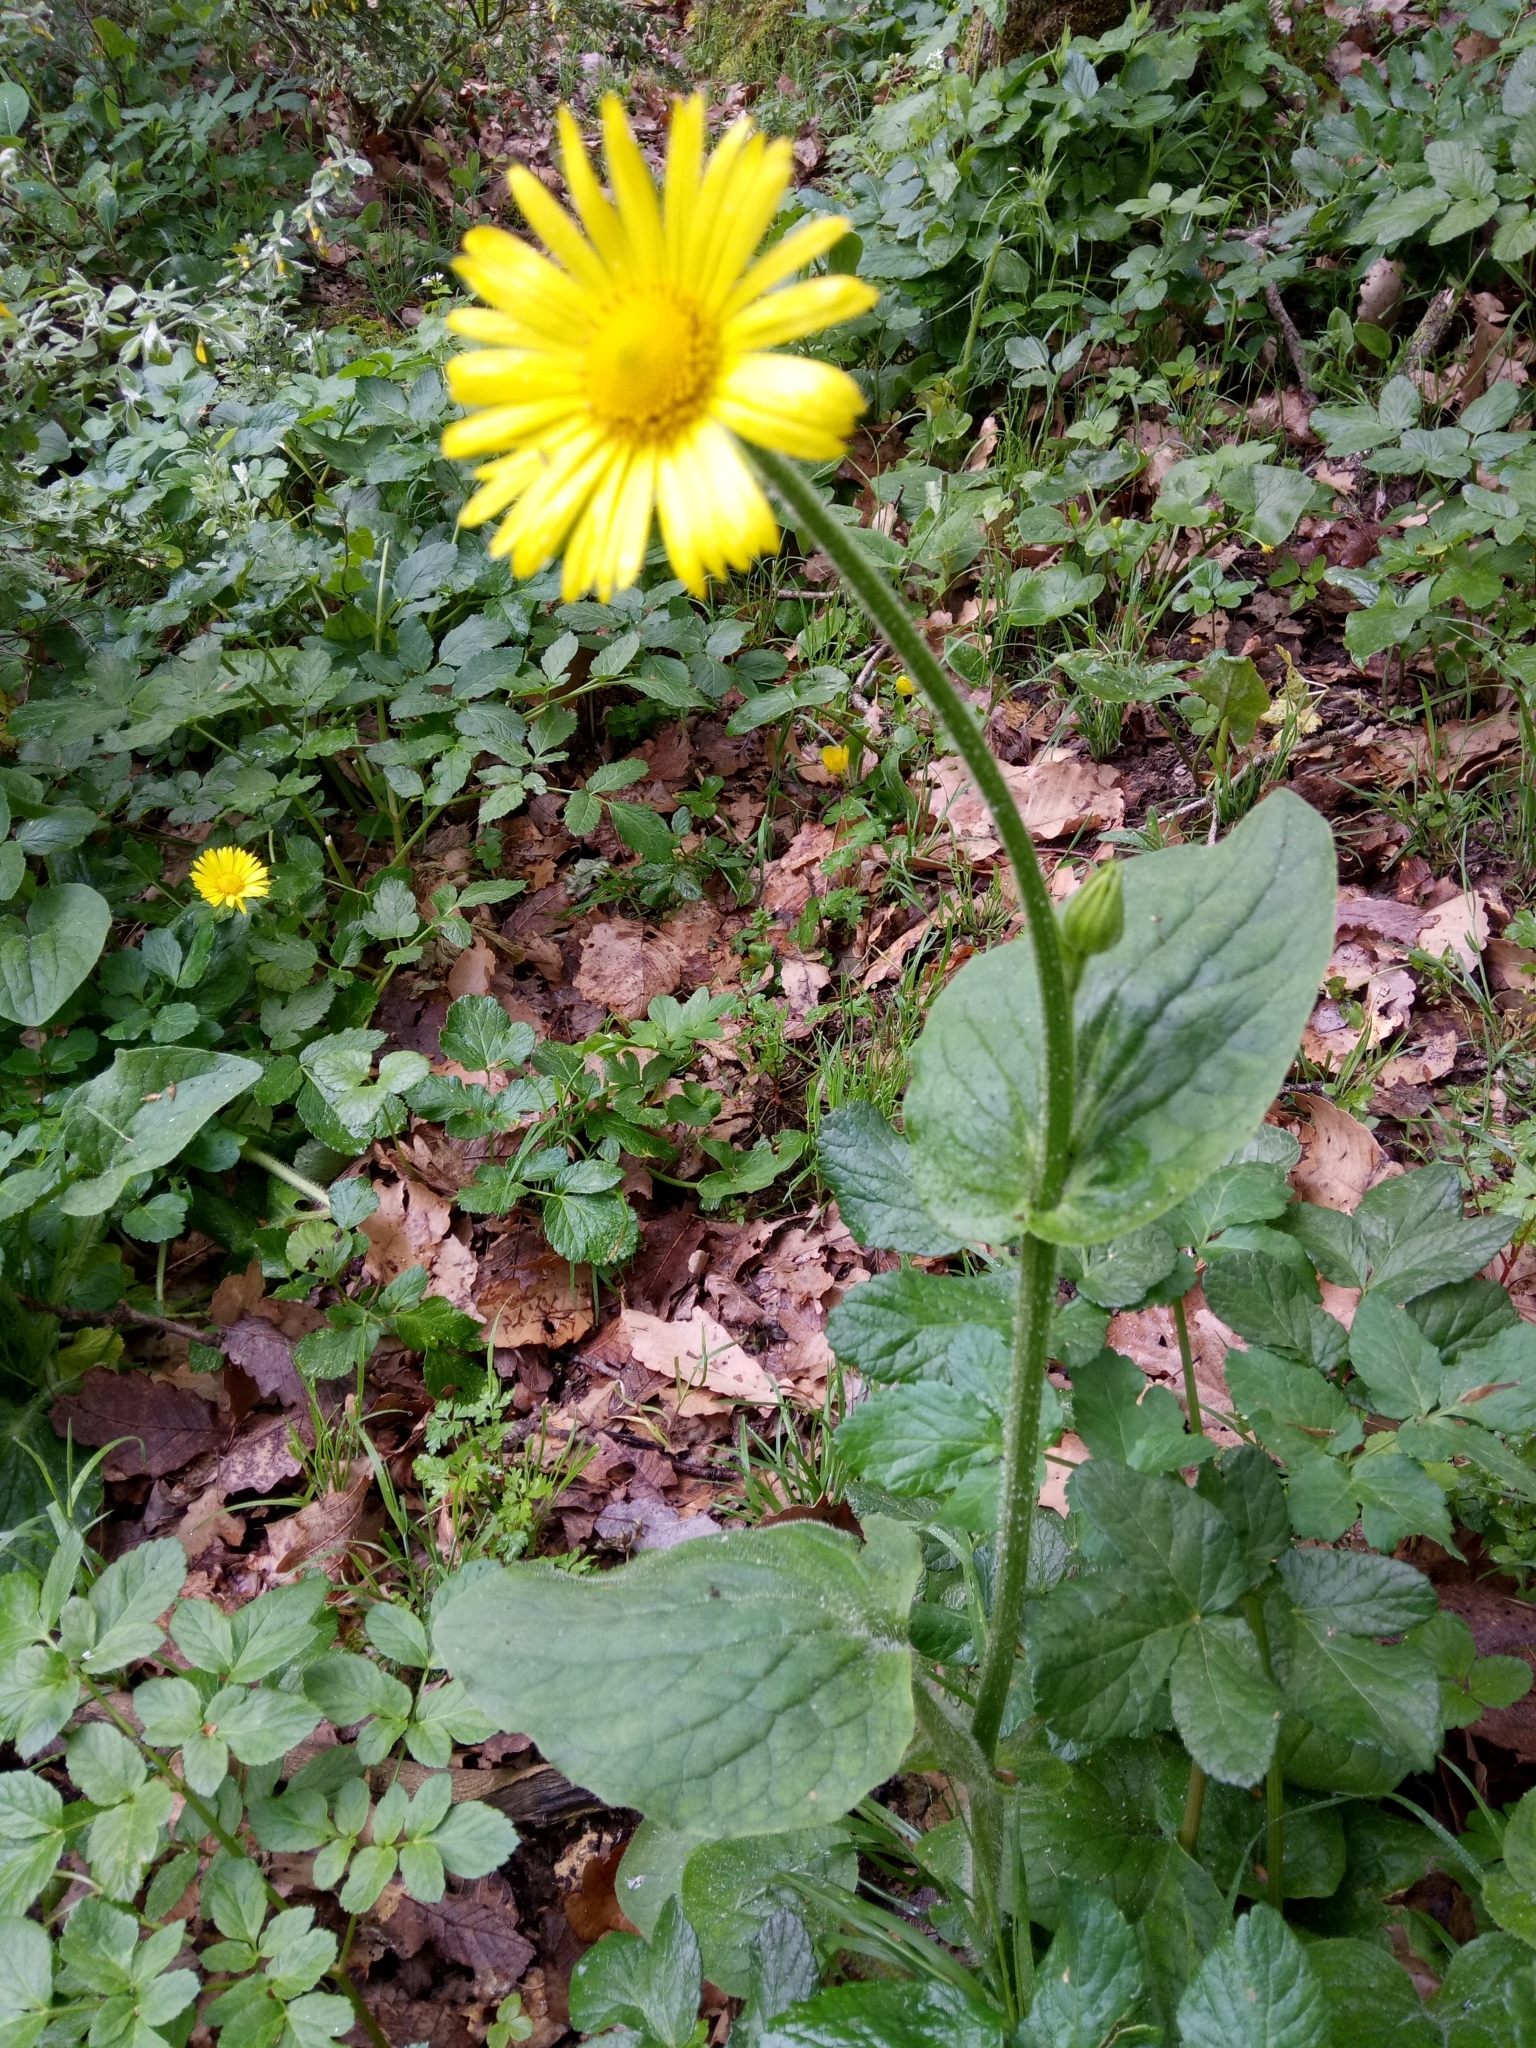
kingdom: Plantae
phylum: Tracheophyta
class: Magnoliopsida
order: Asterales
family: Asteraceae
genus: Doronicum
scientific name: Doronicum plantagineum
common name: Plantain-leaved leopard's-bane
